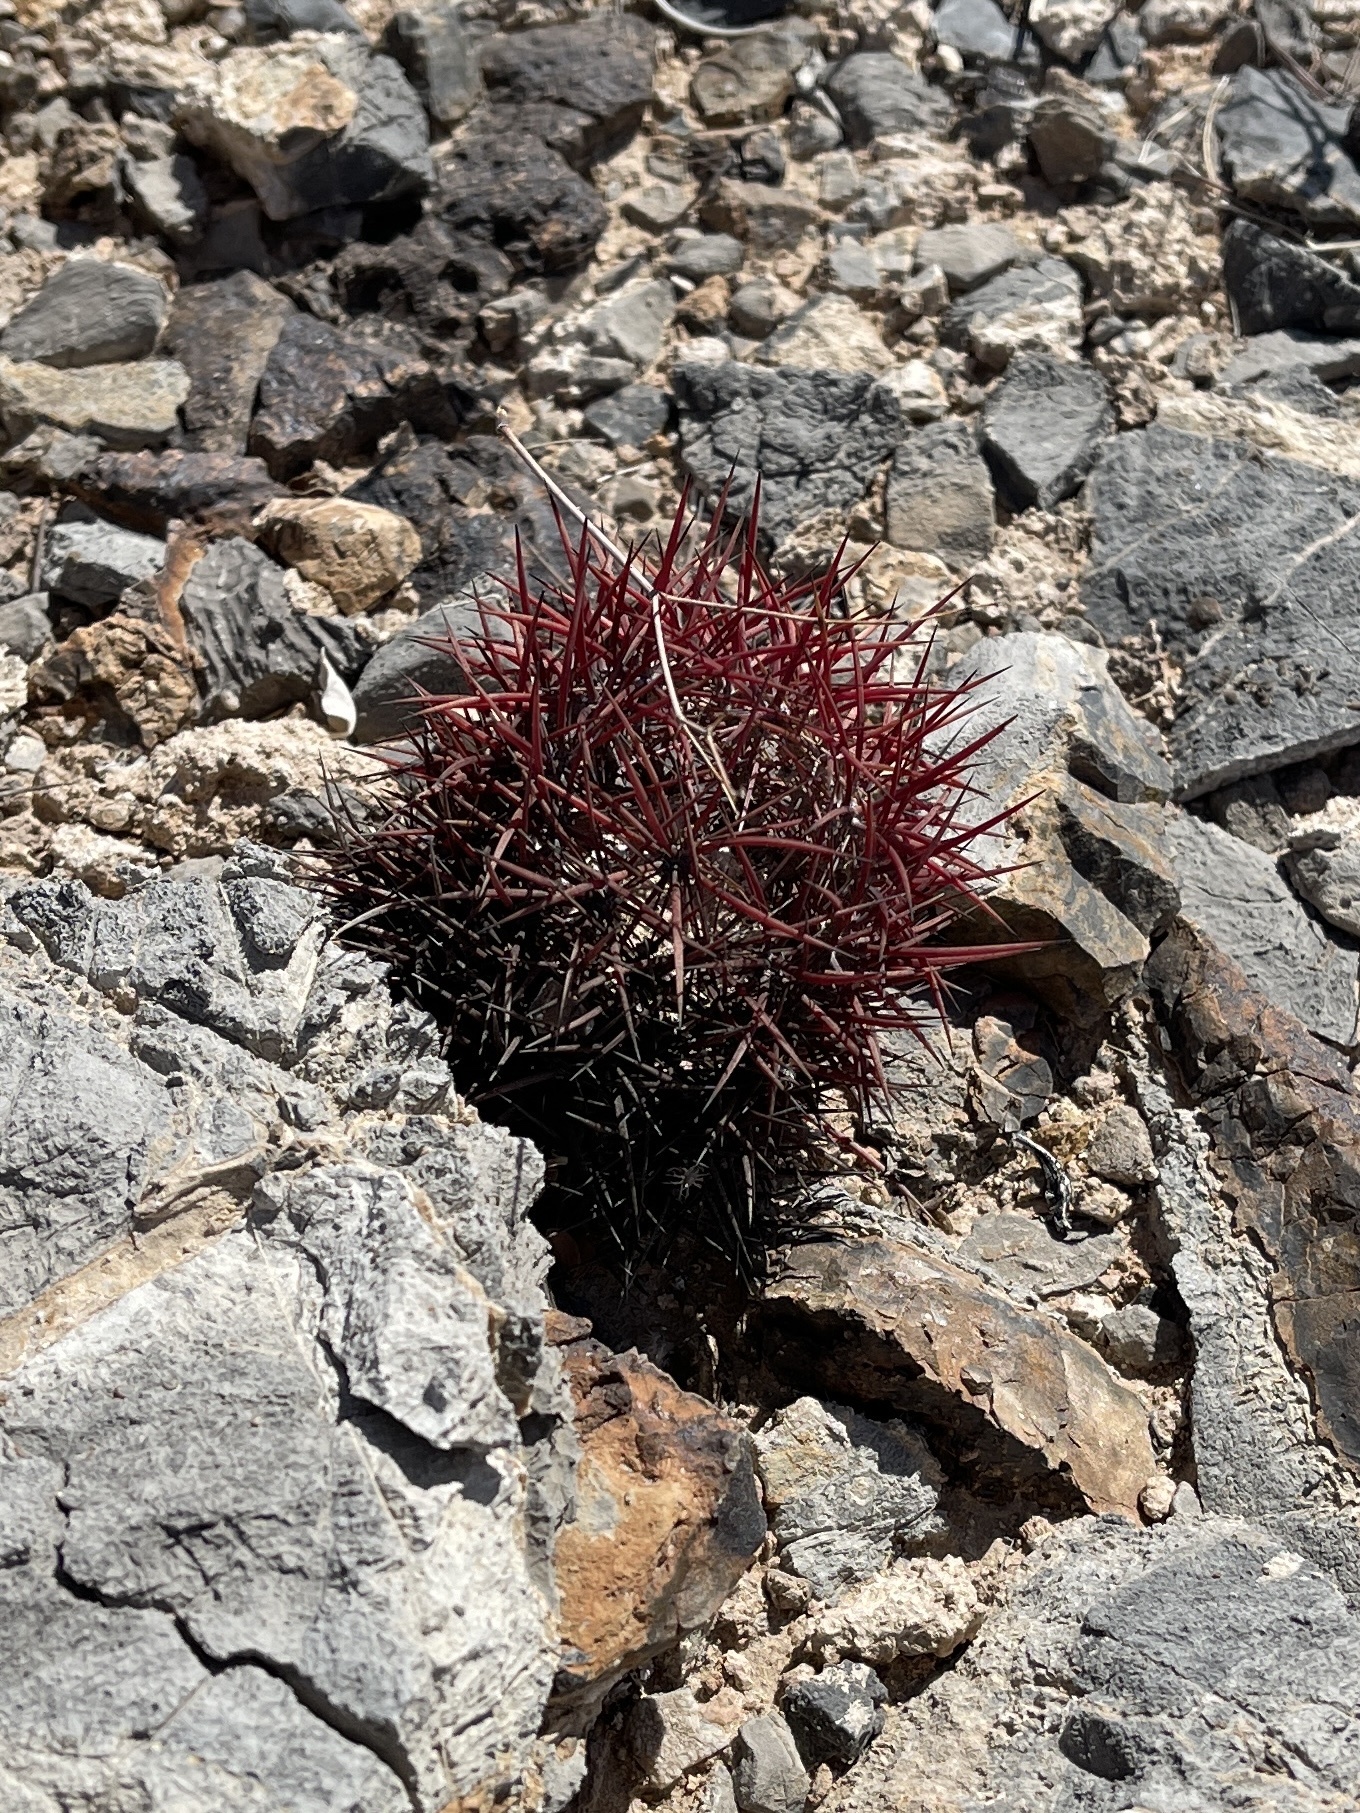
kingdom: Plantae
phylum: Tracheophyta
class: Magnoliopsida
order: Caryophyllales
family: Cactaceae
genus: Sclerocactus
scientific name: Sclerocactus johnsonii
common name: Eight-spine fishhook cactus
